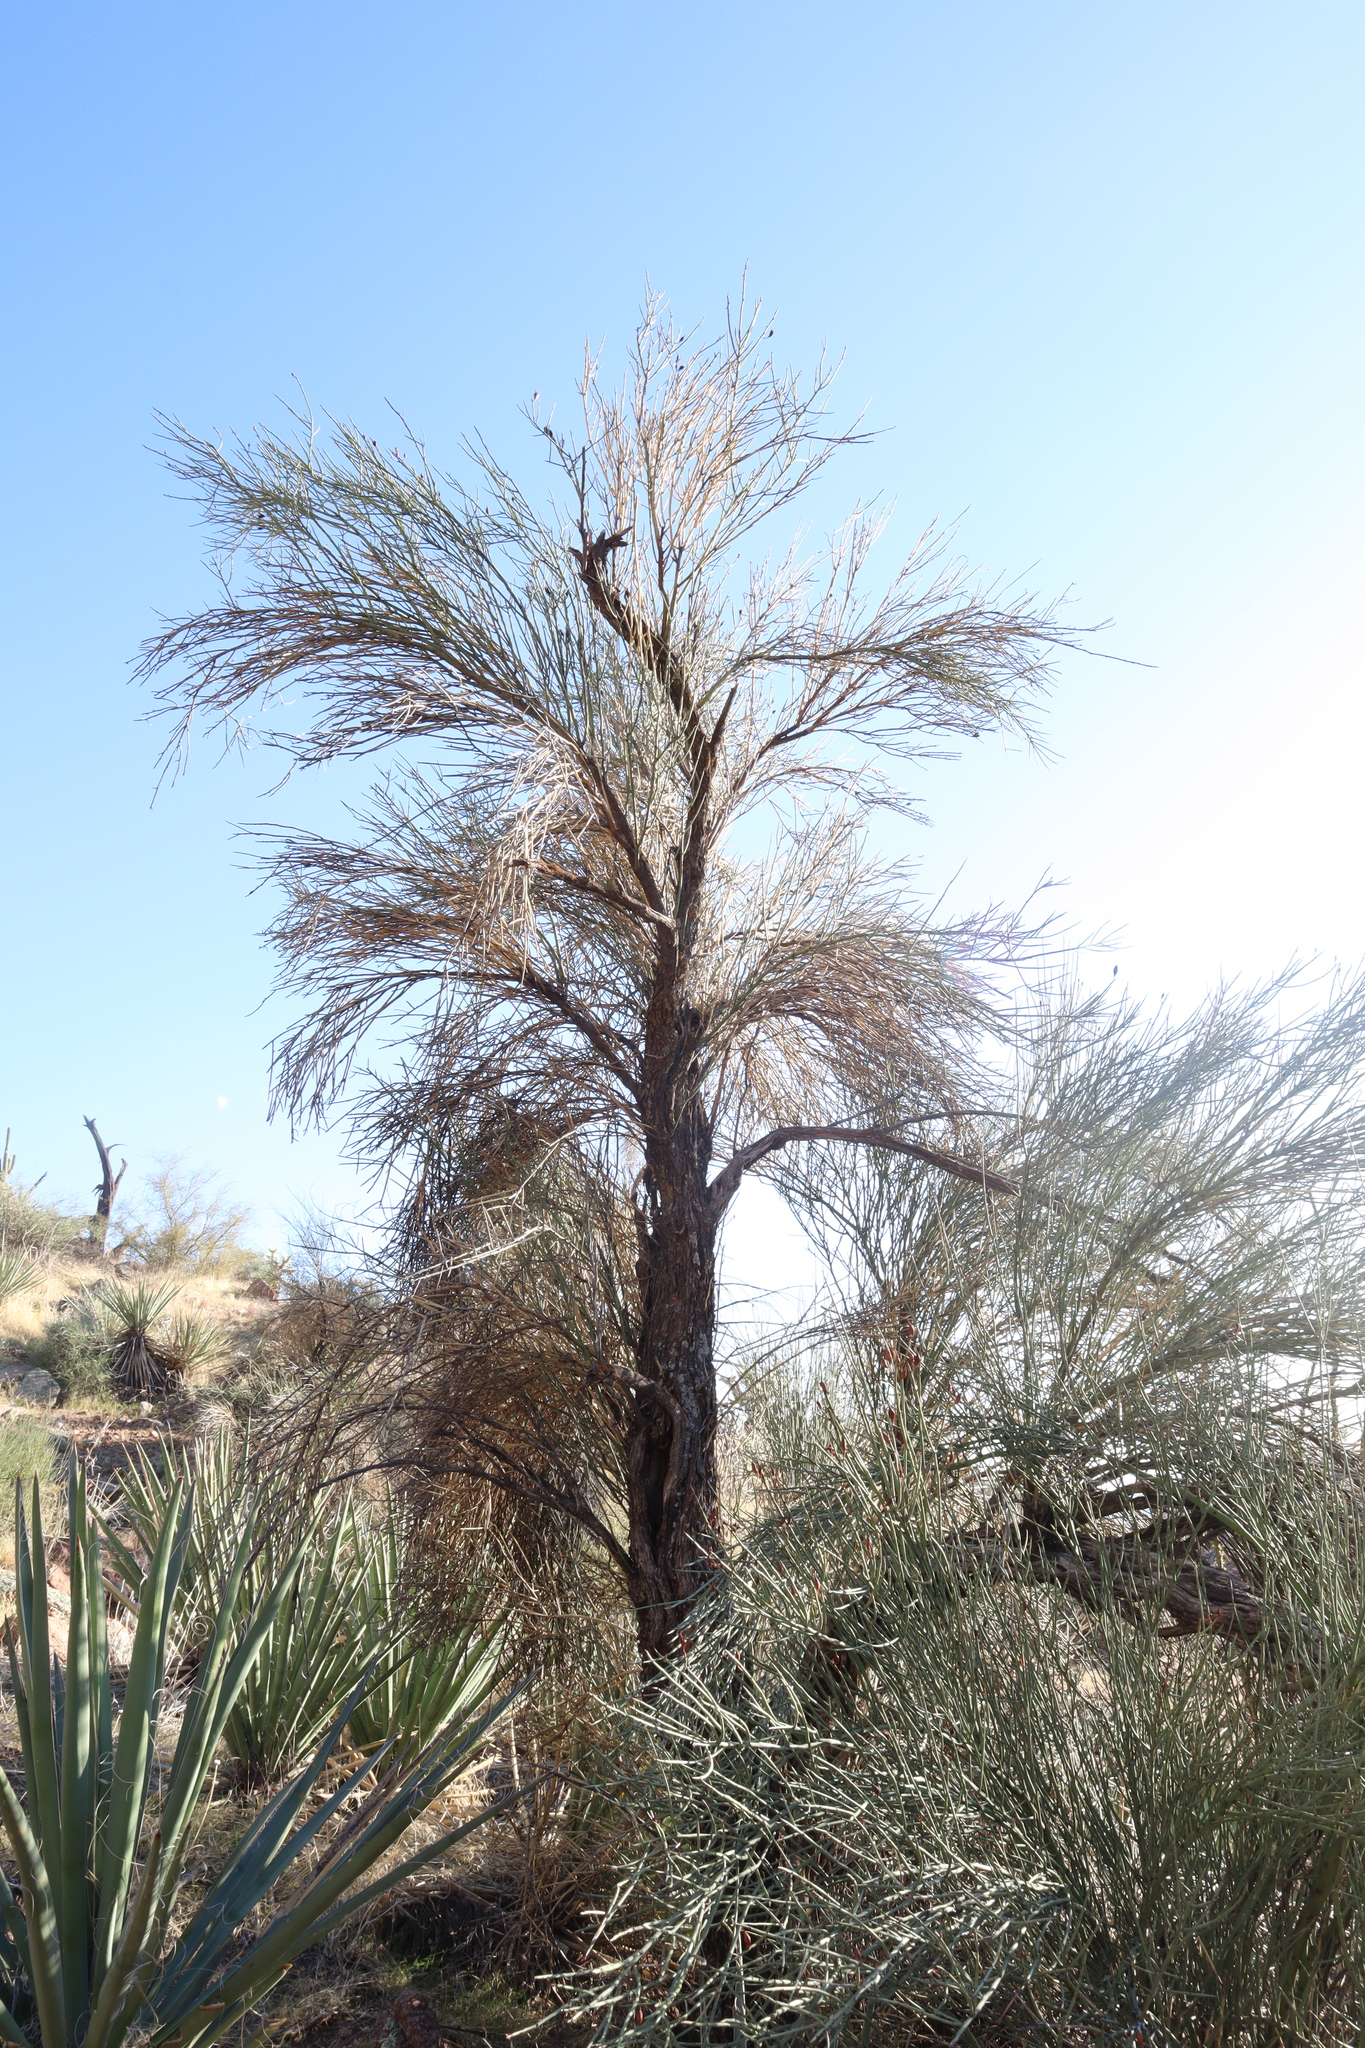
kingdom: Plantae
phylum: Tracheophyta
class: Magnoliopsida
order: Celastrales
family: Celastraceae
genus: Canotia
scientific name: Canotia holacantha
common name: Crucifixion thorns
